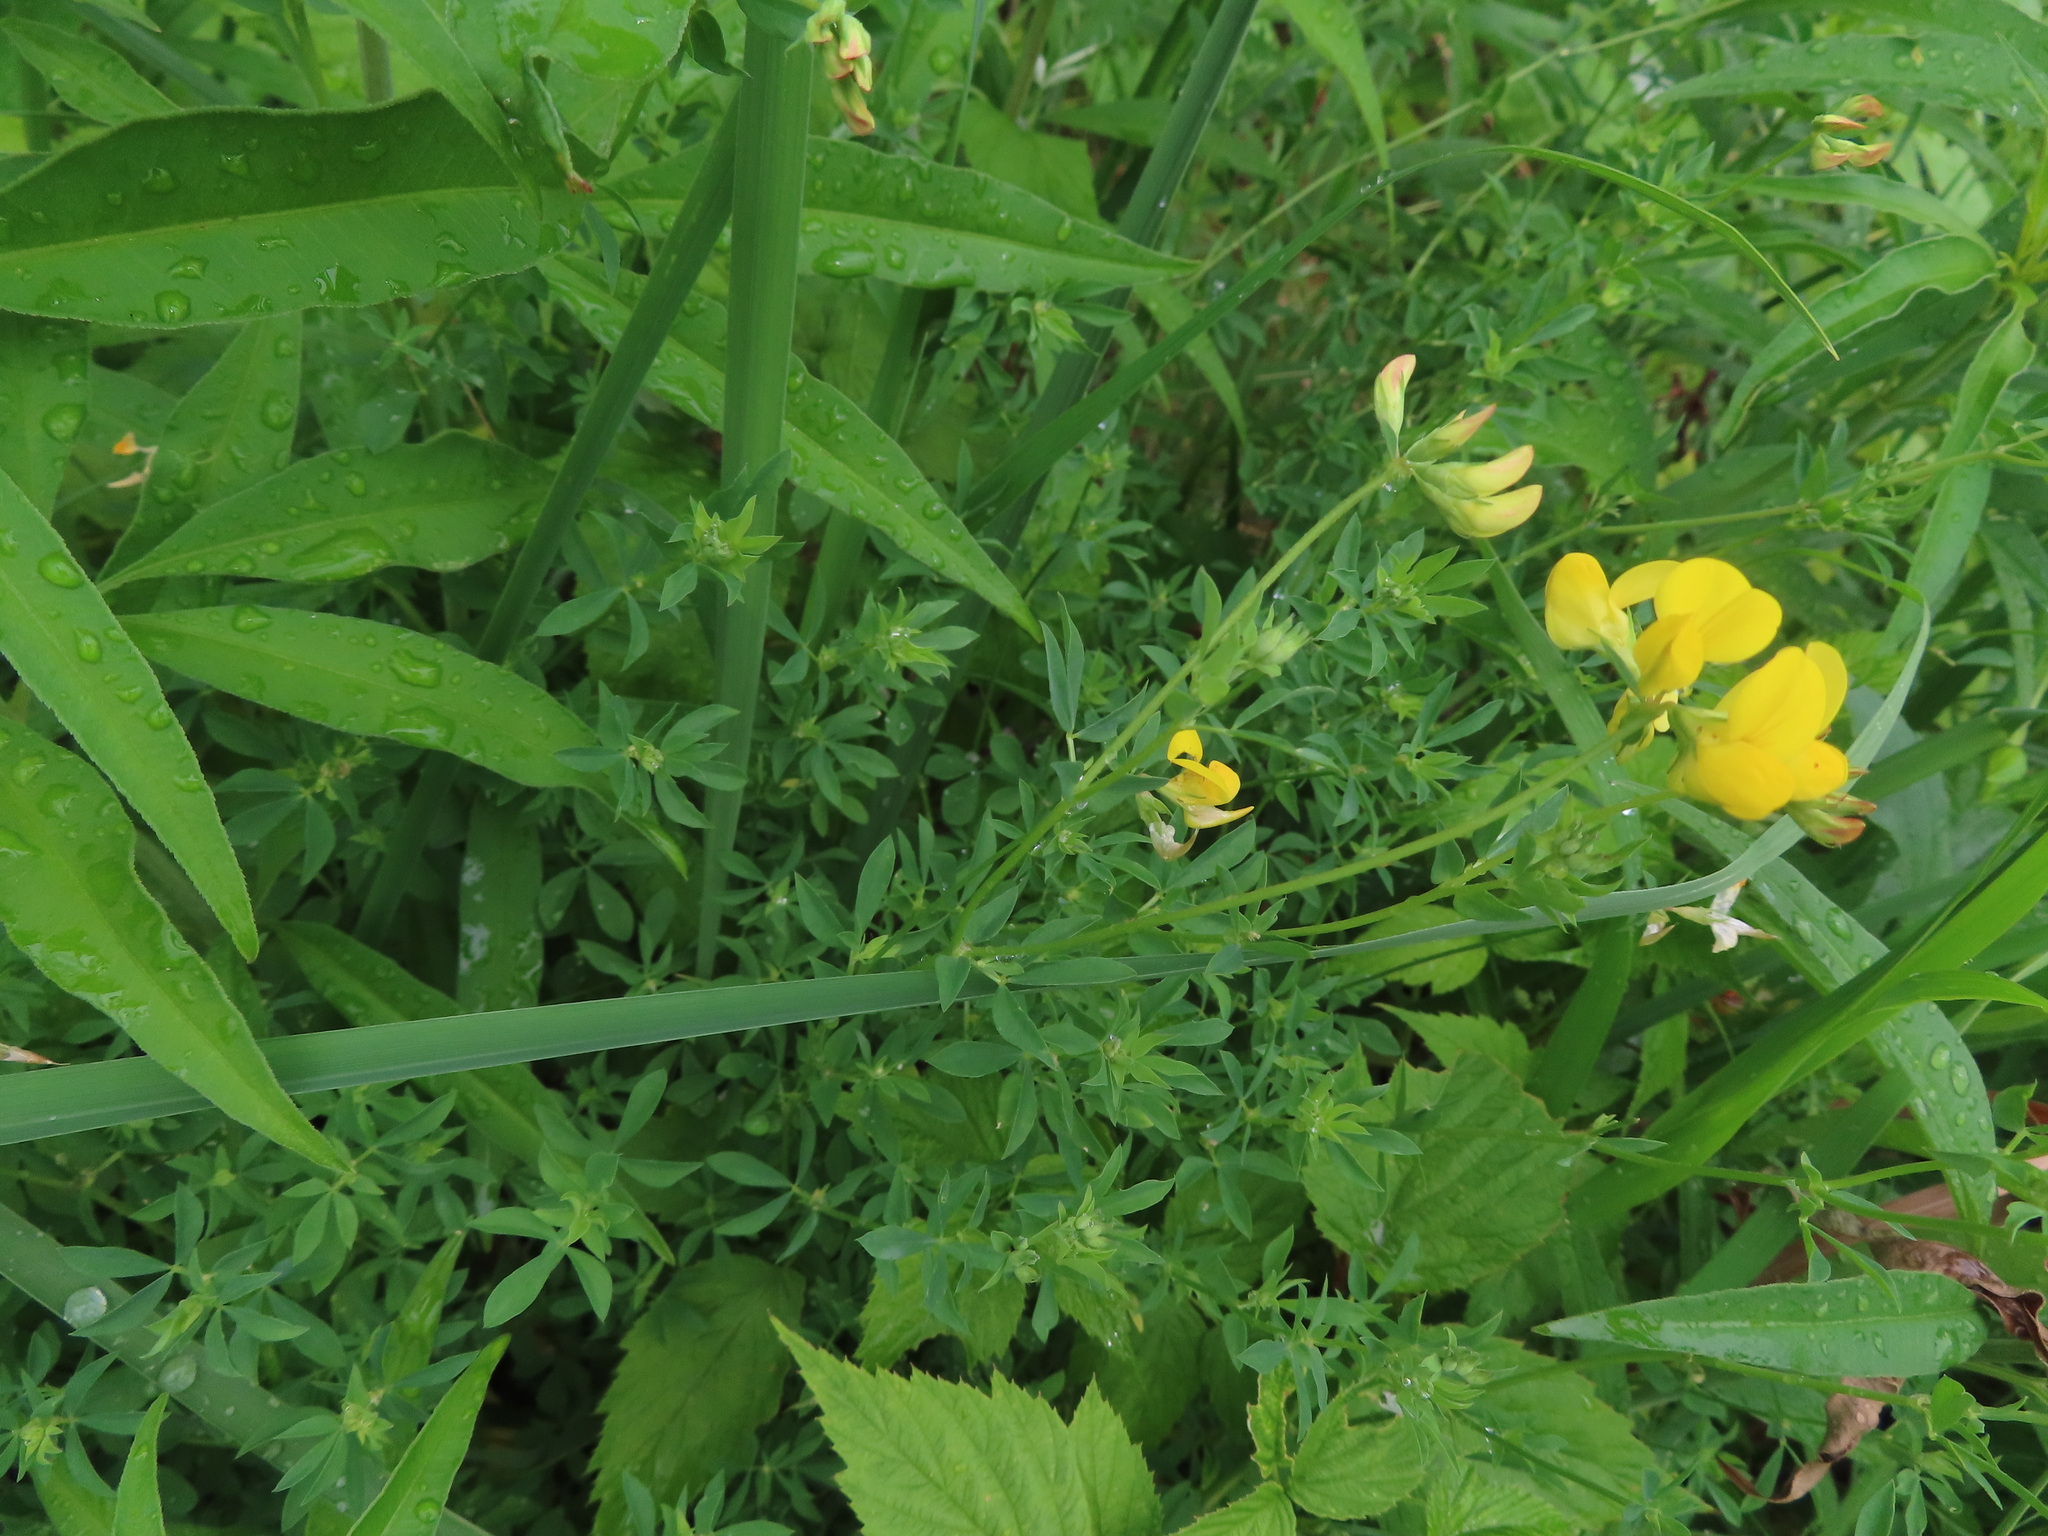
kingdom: Plantae
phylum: Tracheophyta
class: Magnoliopsida
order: Fabales
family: Fabaceae
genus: Lotus
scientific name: Lotus corniculatus
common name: Common bird's-foot-trefoil
